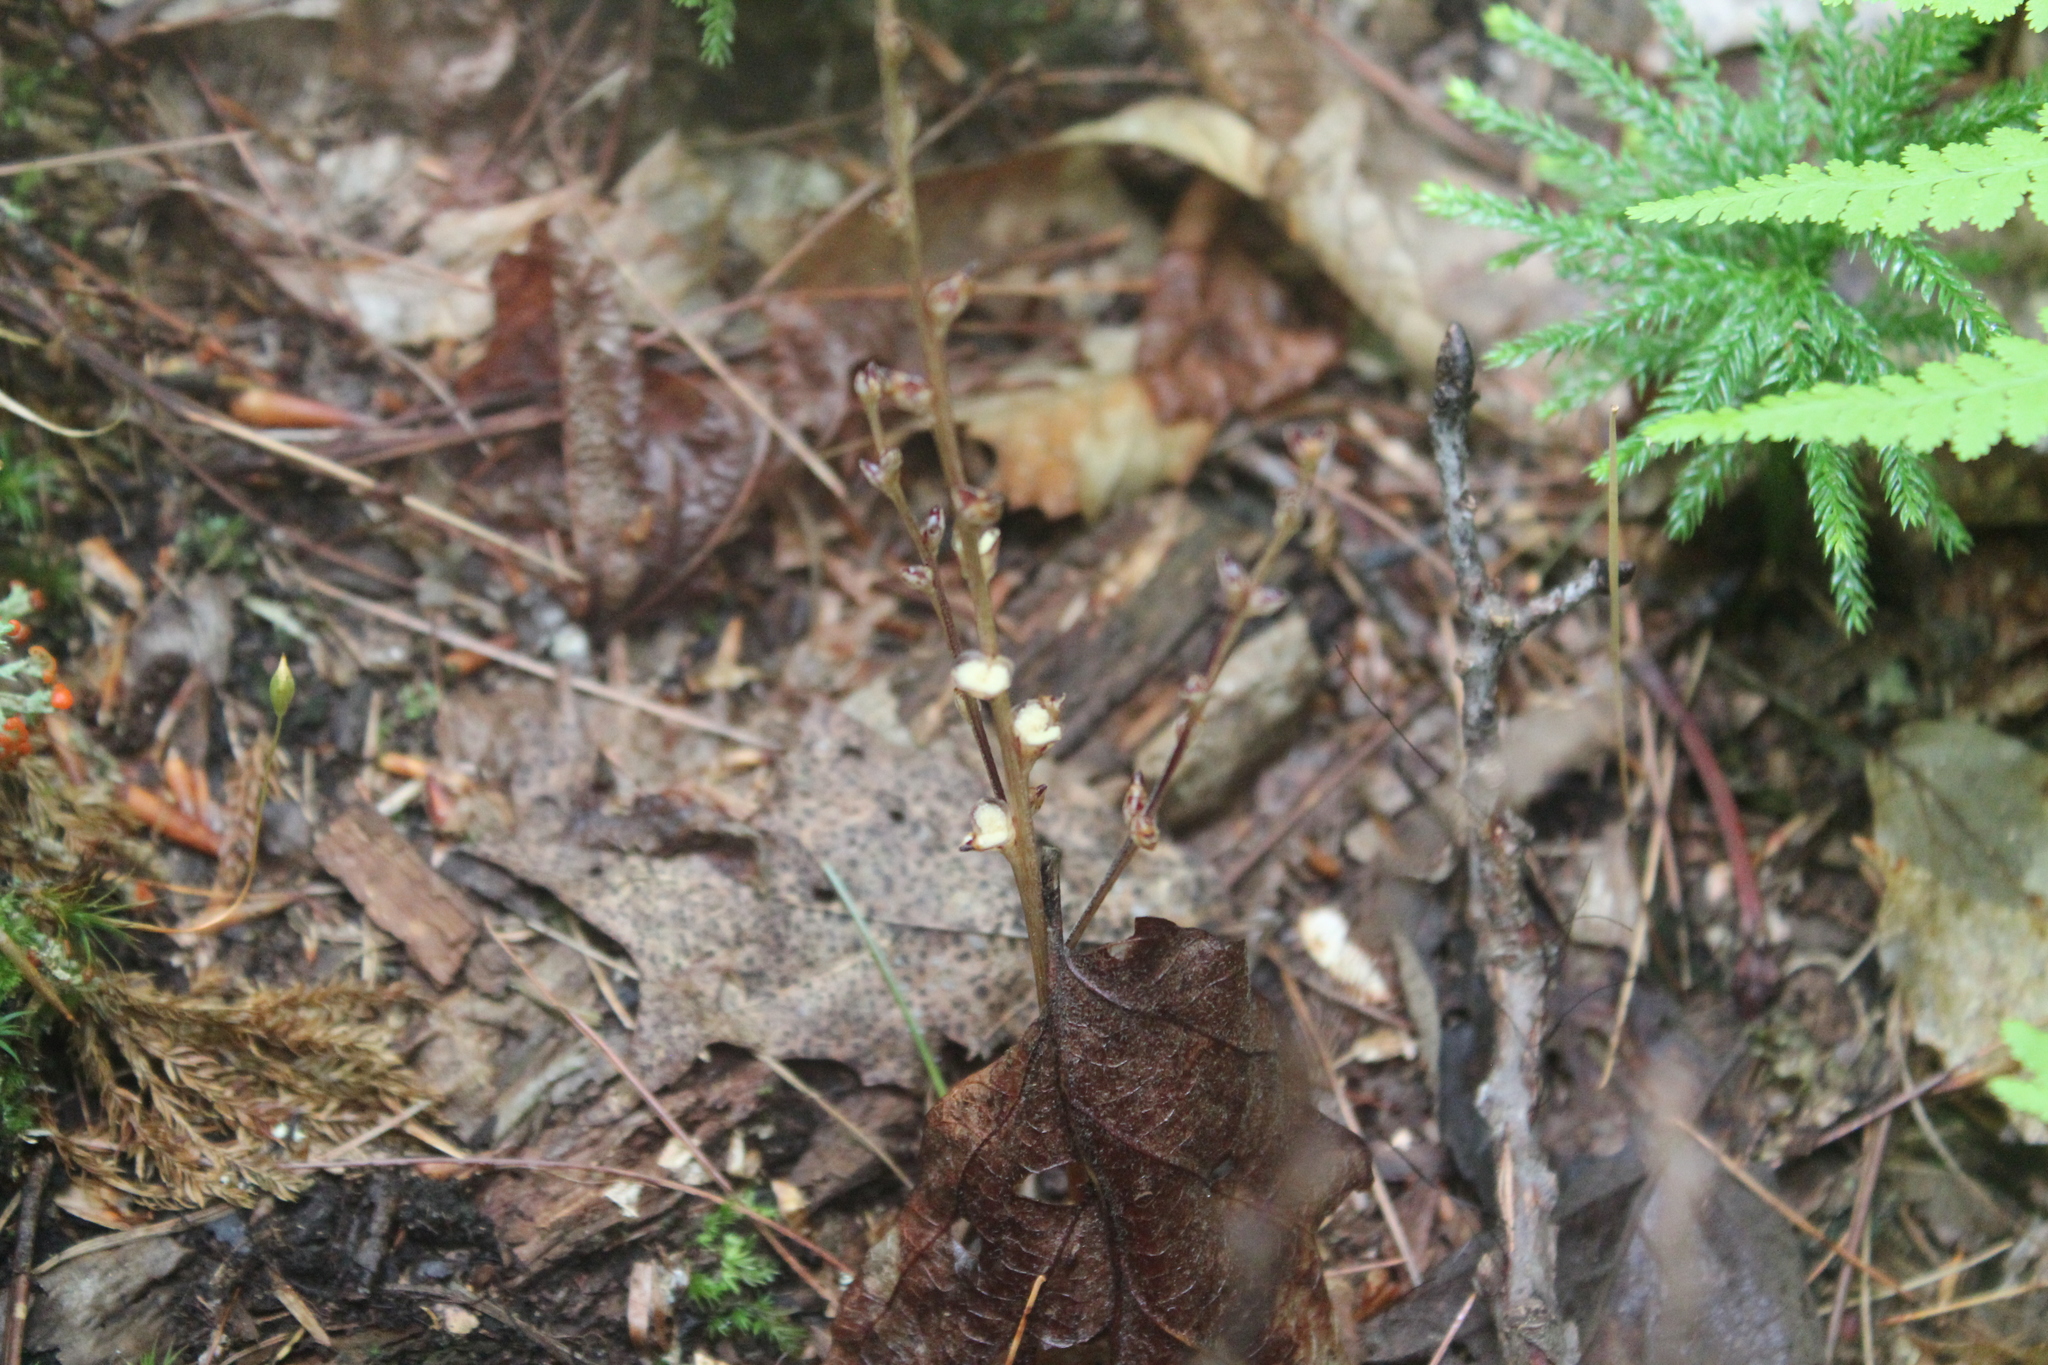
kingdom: Plantae
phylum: Tracheophyta
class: Magnoliopsida
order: Lamiales
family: Orobanchaceae
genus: Epifagus
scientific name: Epifagus virginiana
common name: Beechdrops
